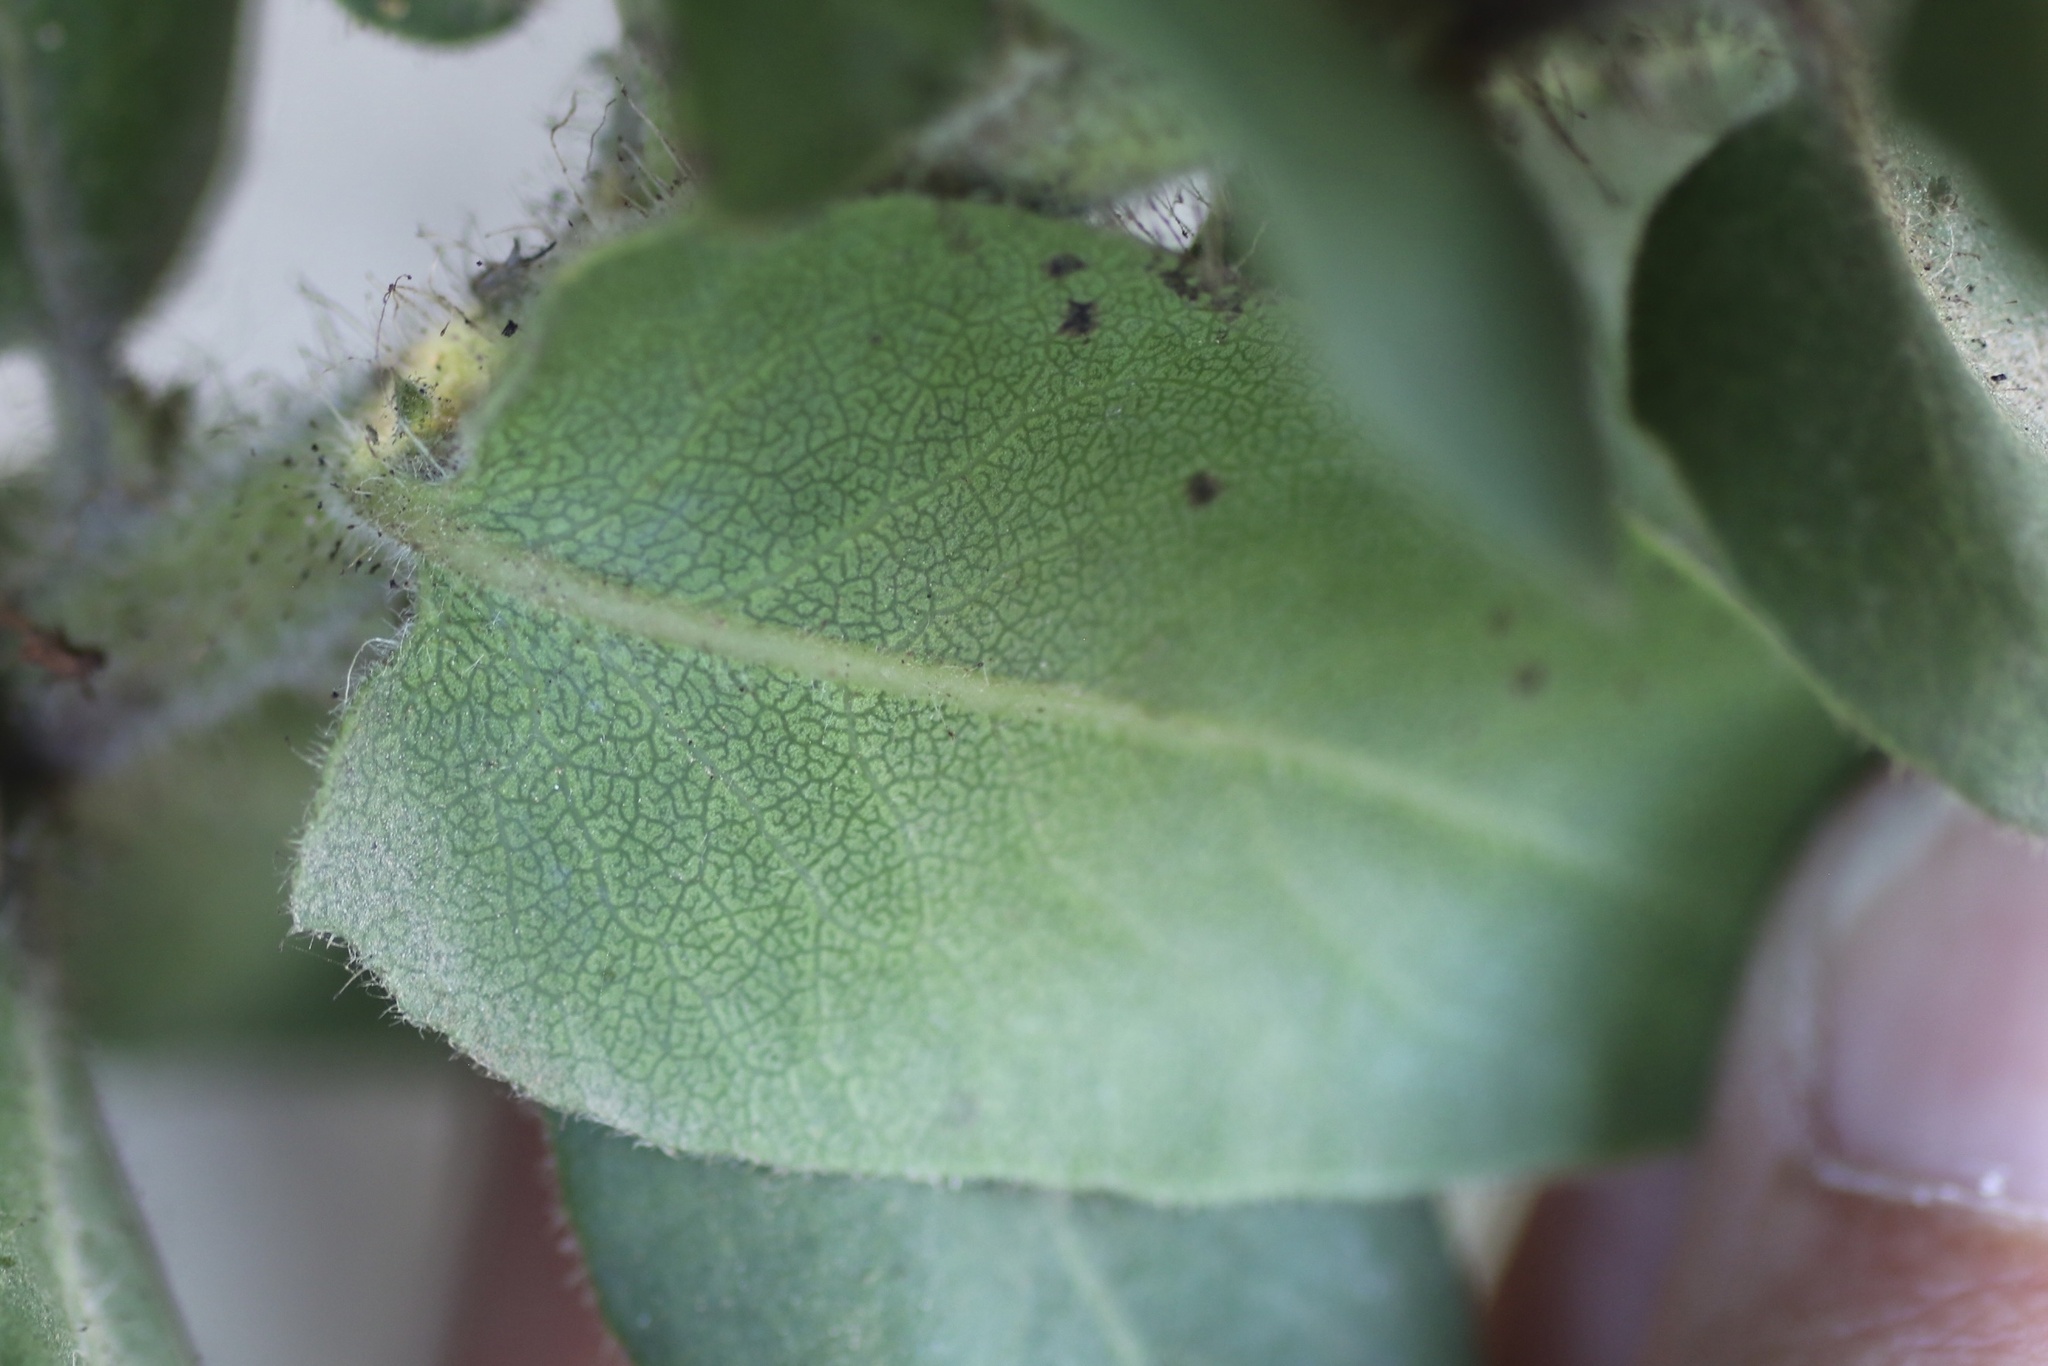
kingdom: Plantae
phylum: Tracheophyta
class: Magnoliopsida
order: Ericales
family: Ericaceae
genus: Arctostaphylos
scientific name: Arctostaphylos montaraensis
